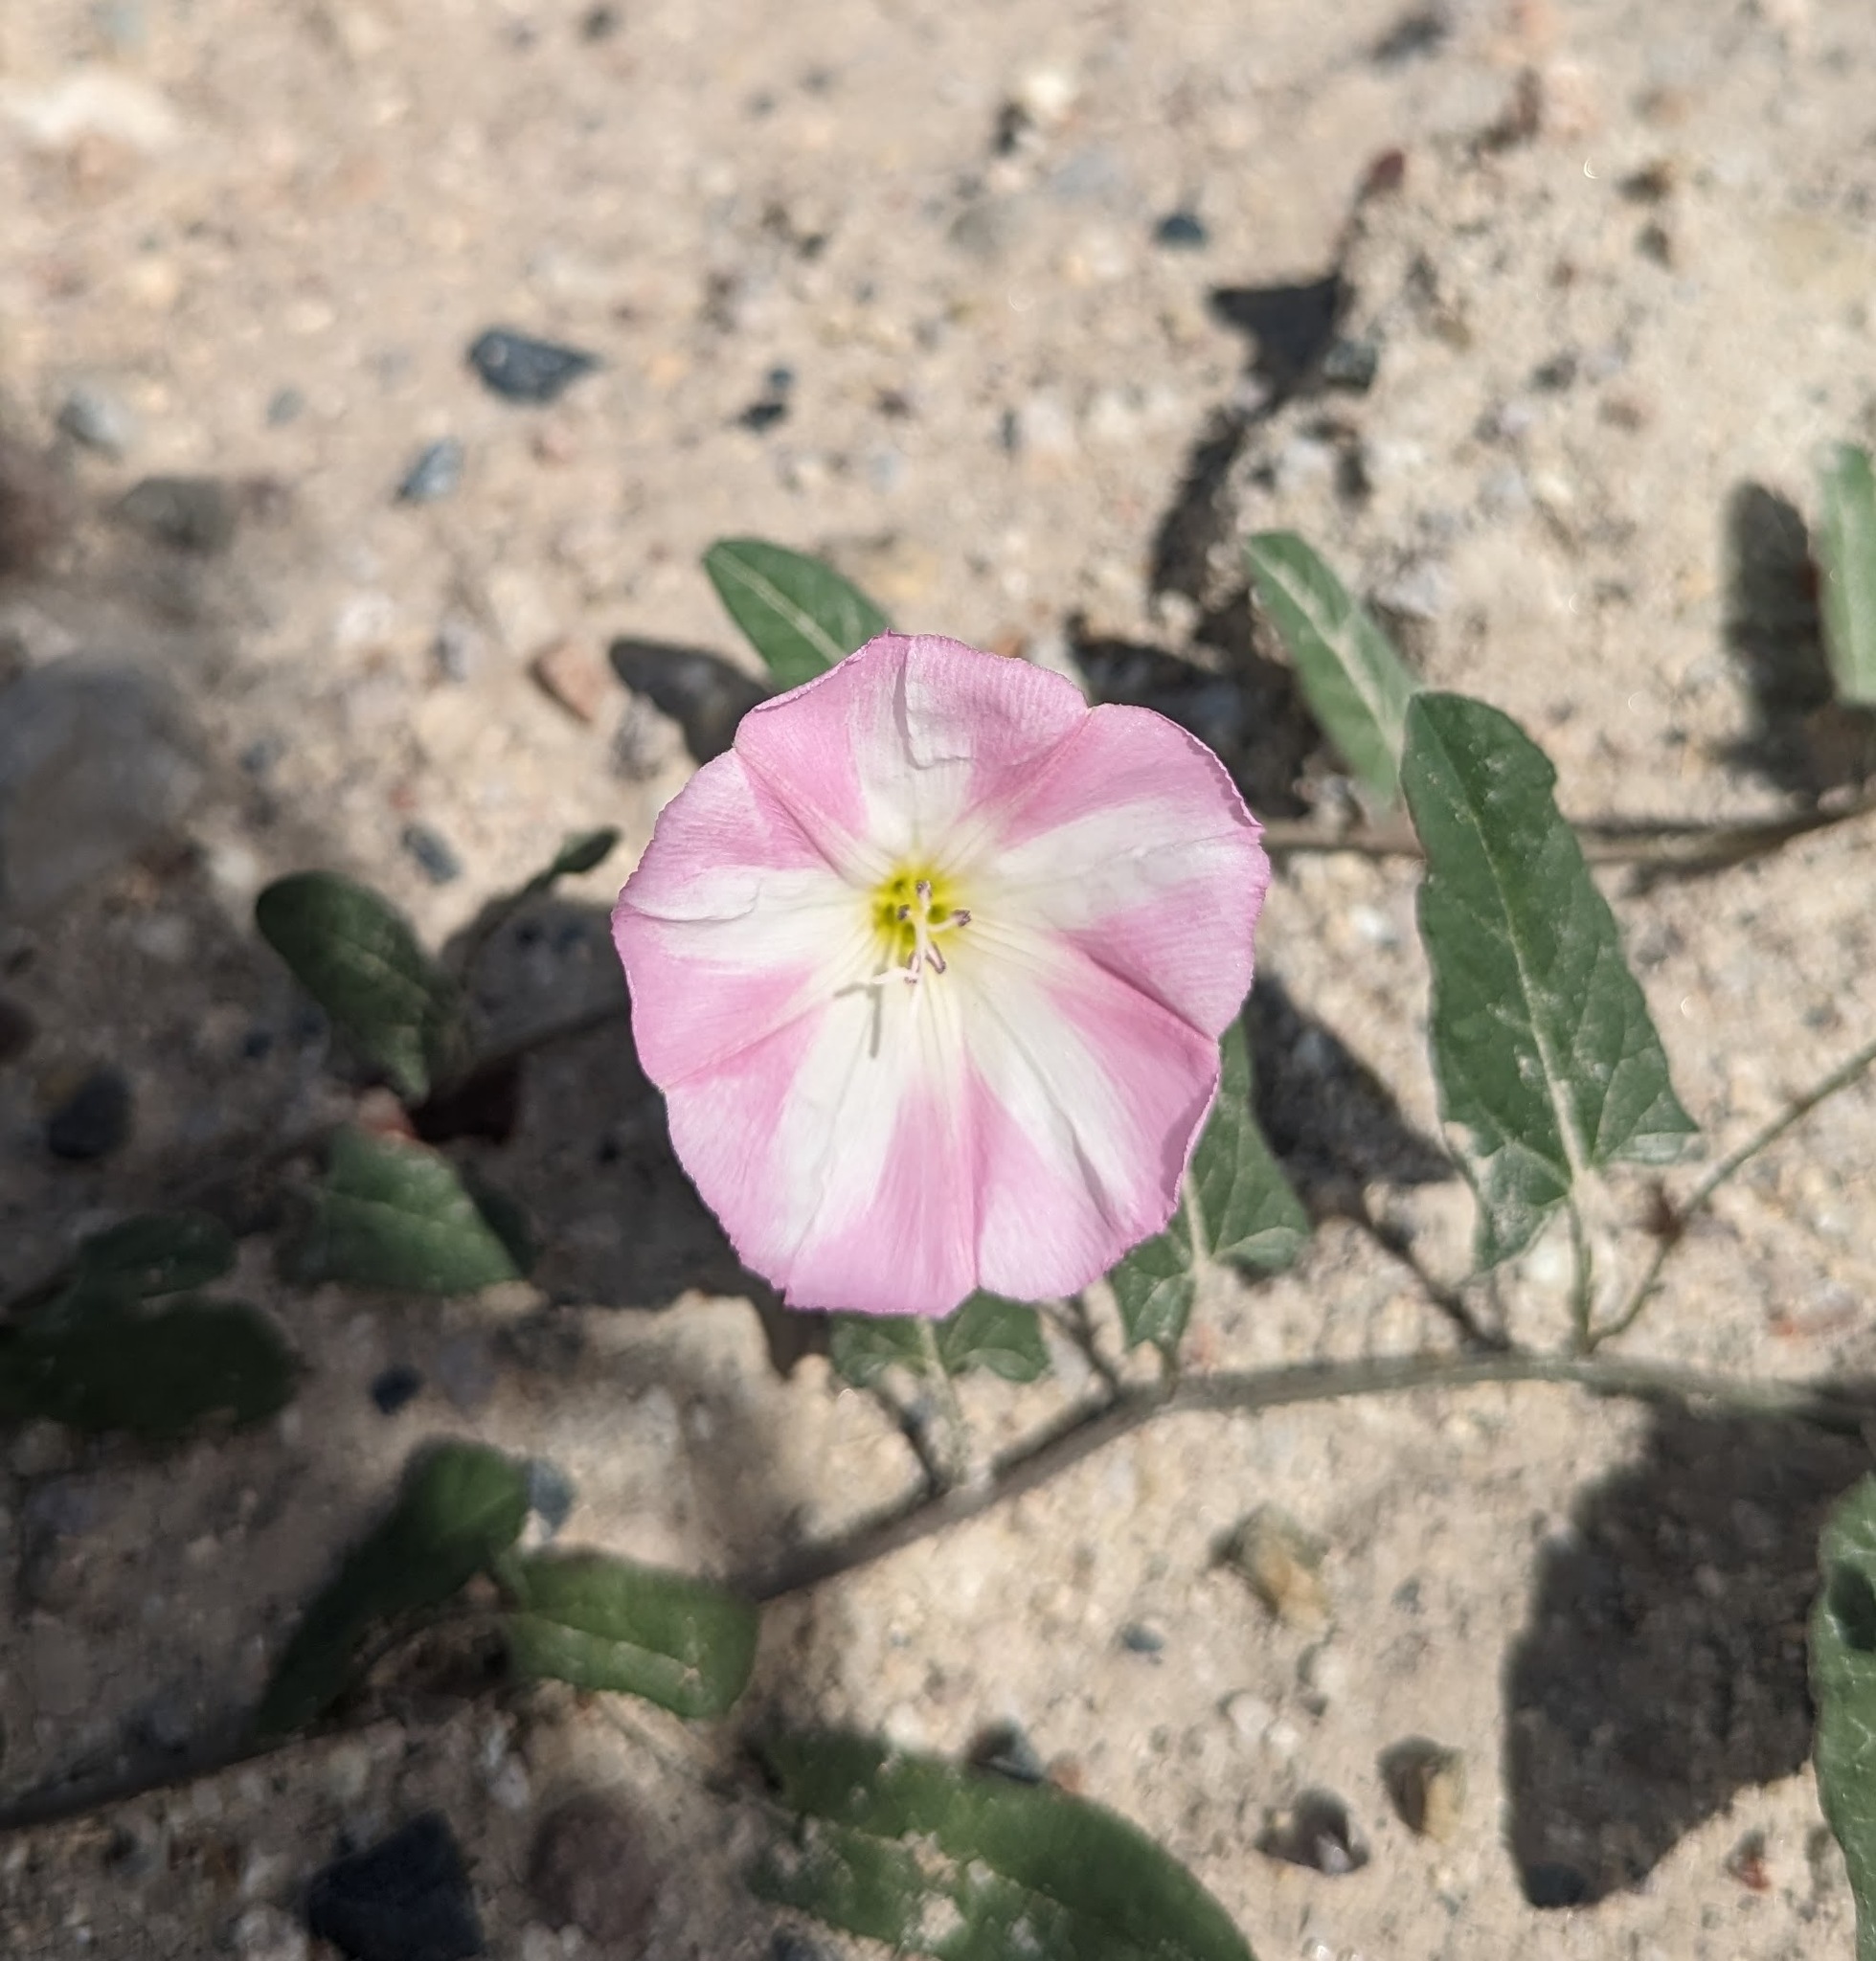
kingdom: Plantae
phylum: Tracheophyta
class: Magnoliopsida
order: Solanales
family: Convolvulaceae
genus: Convolvulus
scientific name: Convolvulus arvensis
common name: Field bindweed
